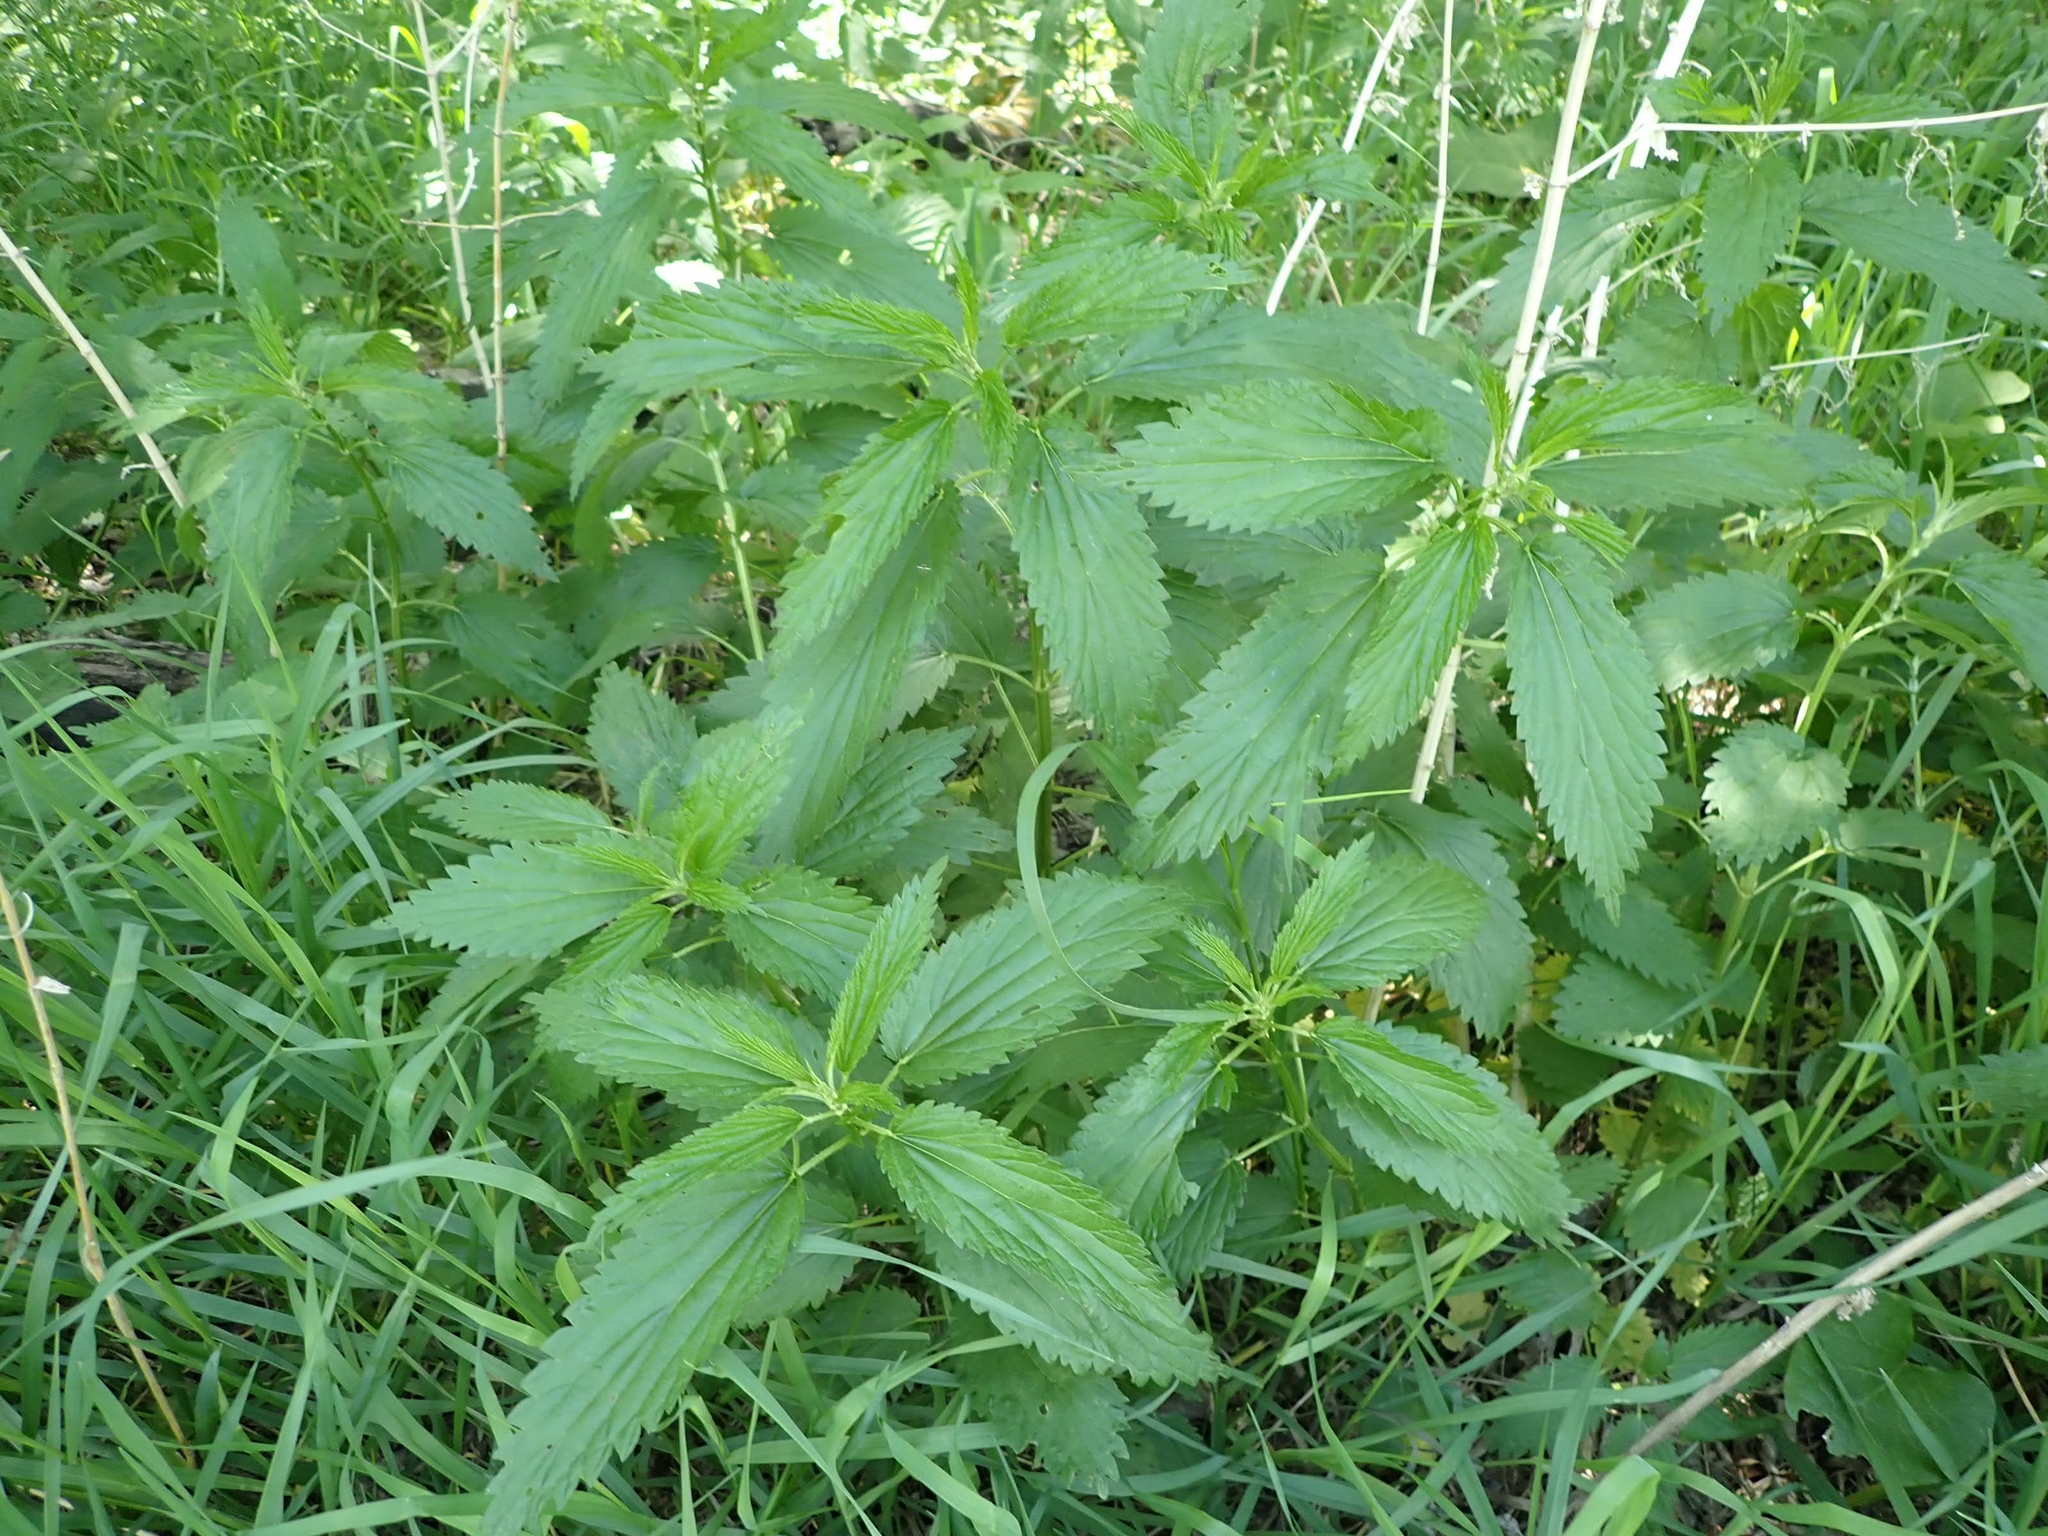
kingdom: Plantae
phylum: Tracheophyta
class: Magnoliopsida
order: Rosales
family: Urticaceae
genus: Urtica
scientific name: Urtica gracilis
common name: Slender stinging nettle
